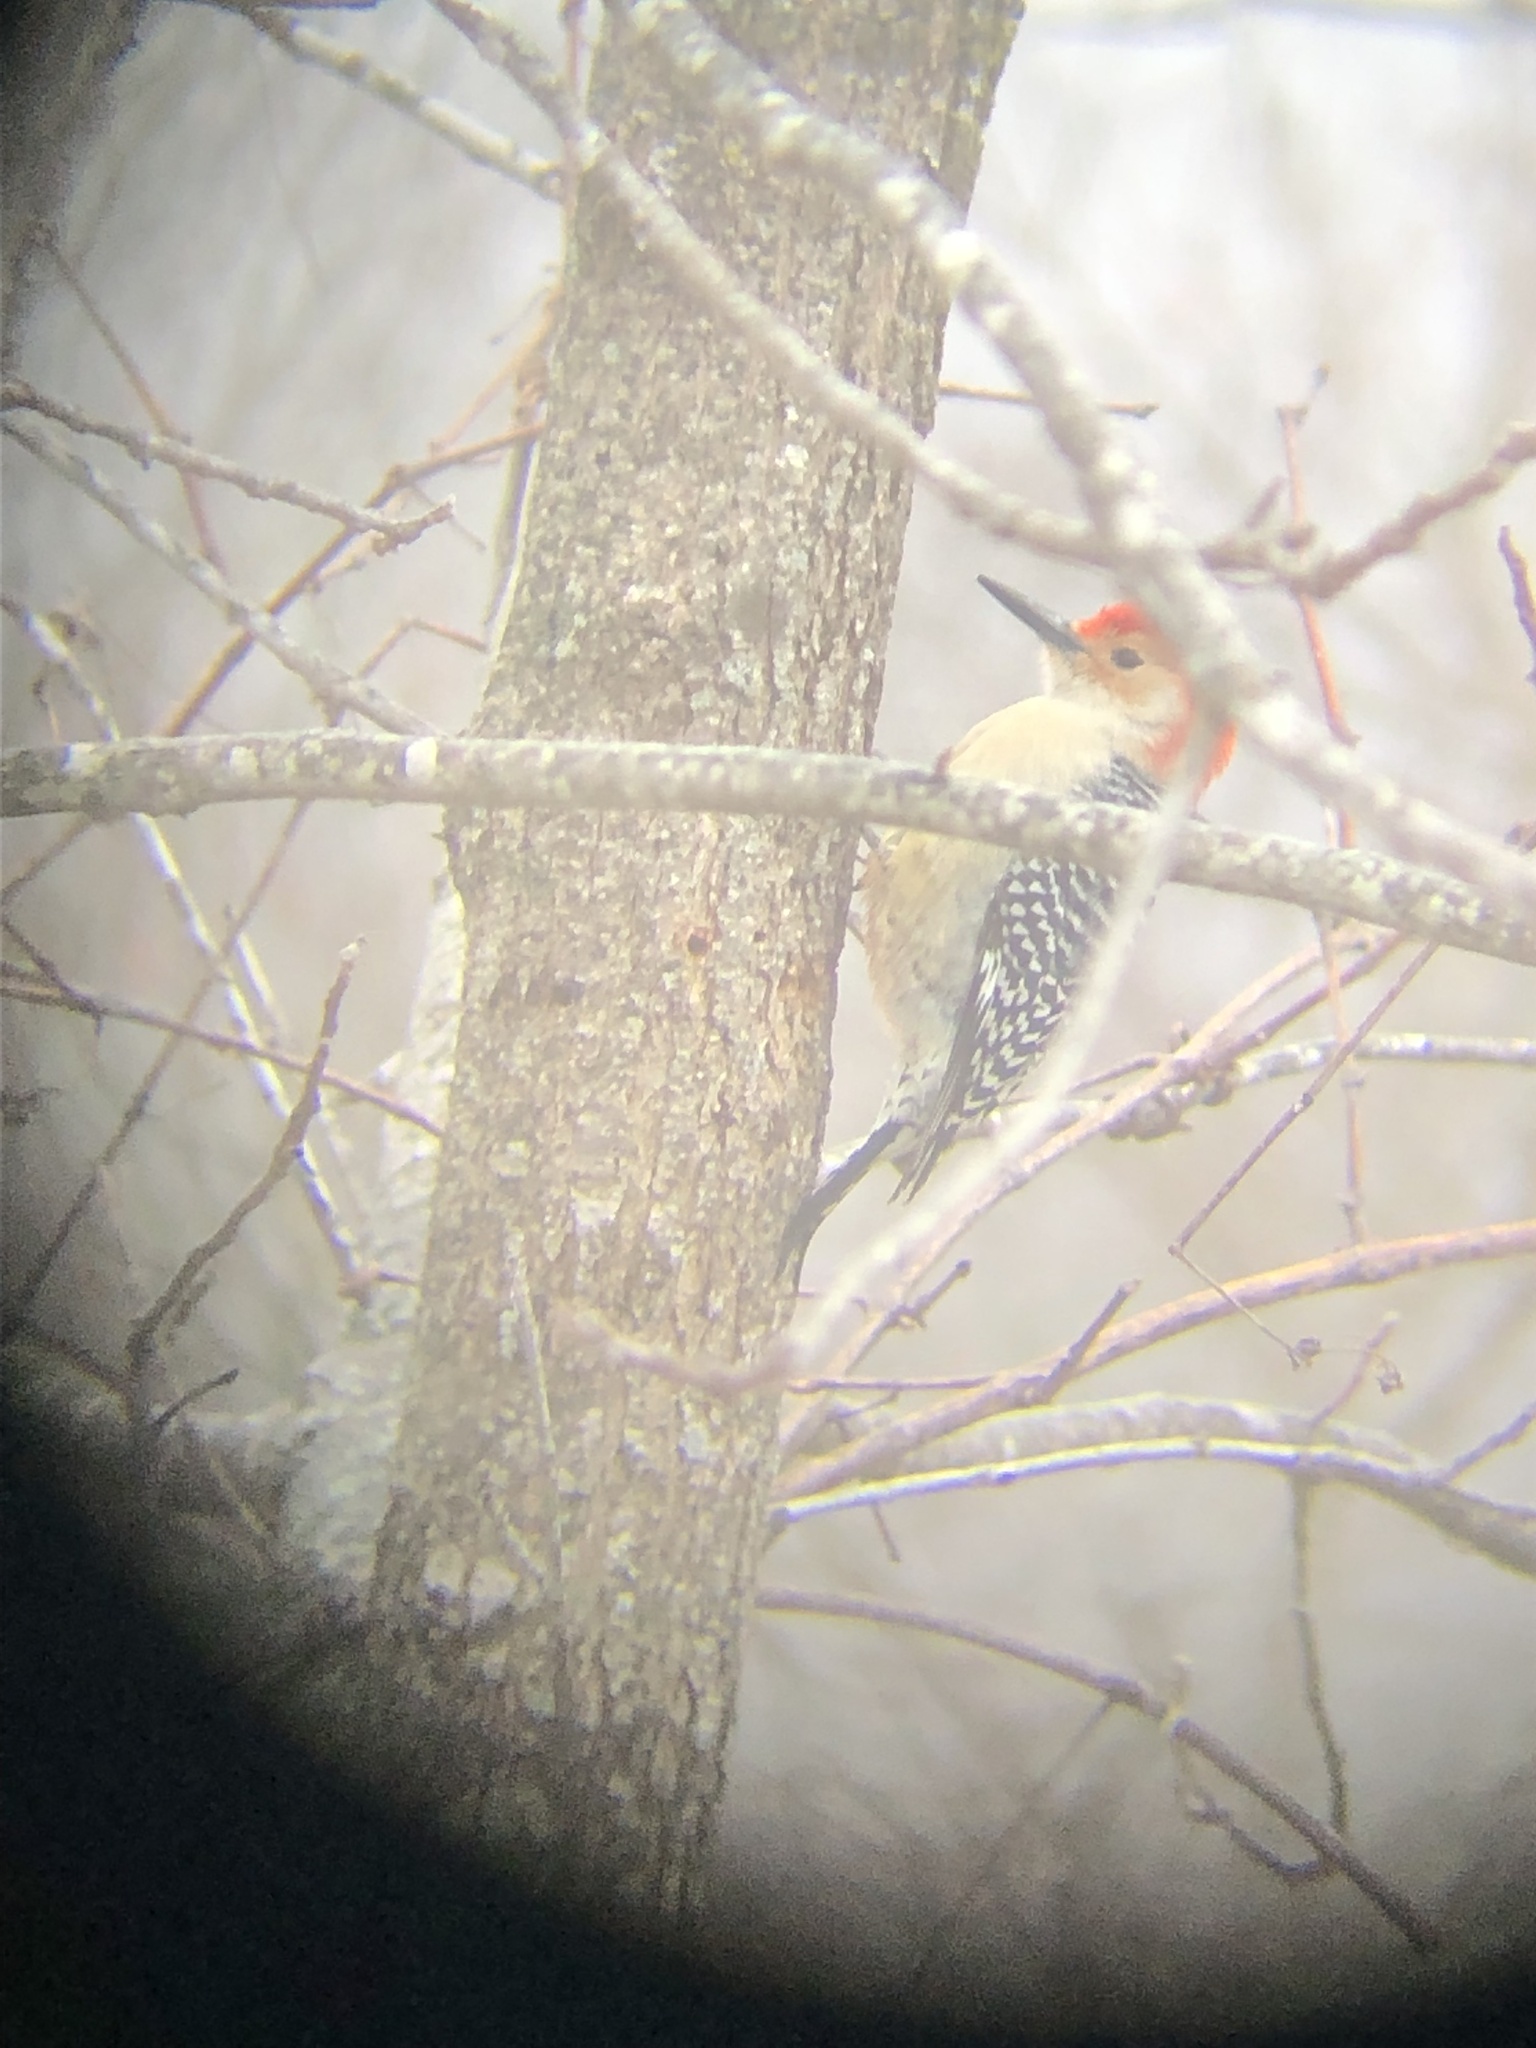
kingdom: Animalia
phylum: Chordata
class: Aves
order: Piciformes
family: Picidae
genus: Melanerpes
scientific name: Melanerpes carolinus
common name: Red-bellied woodpecker
